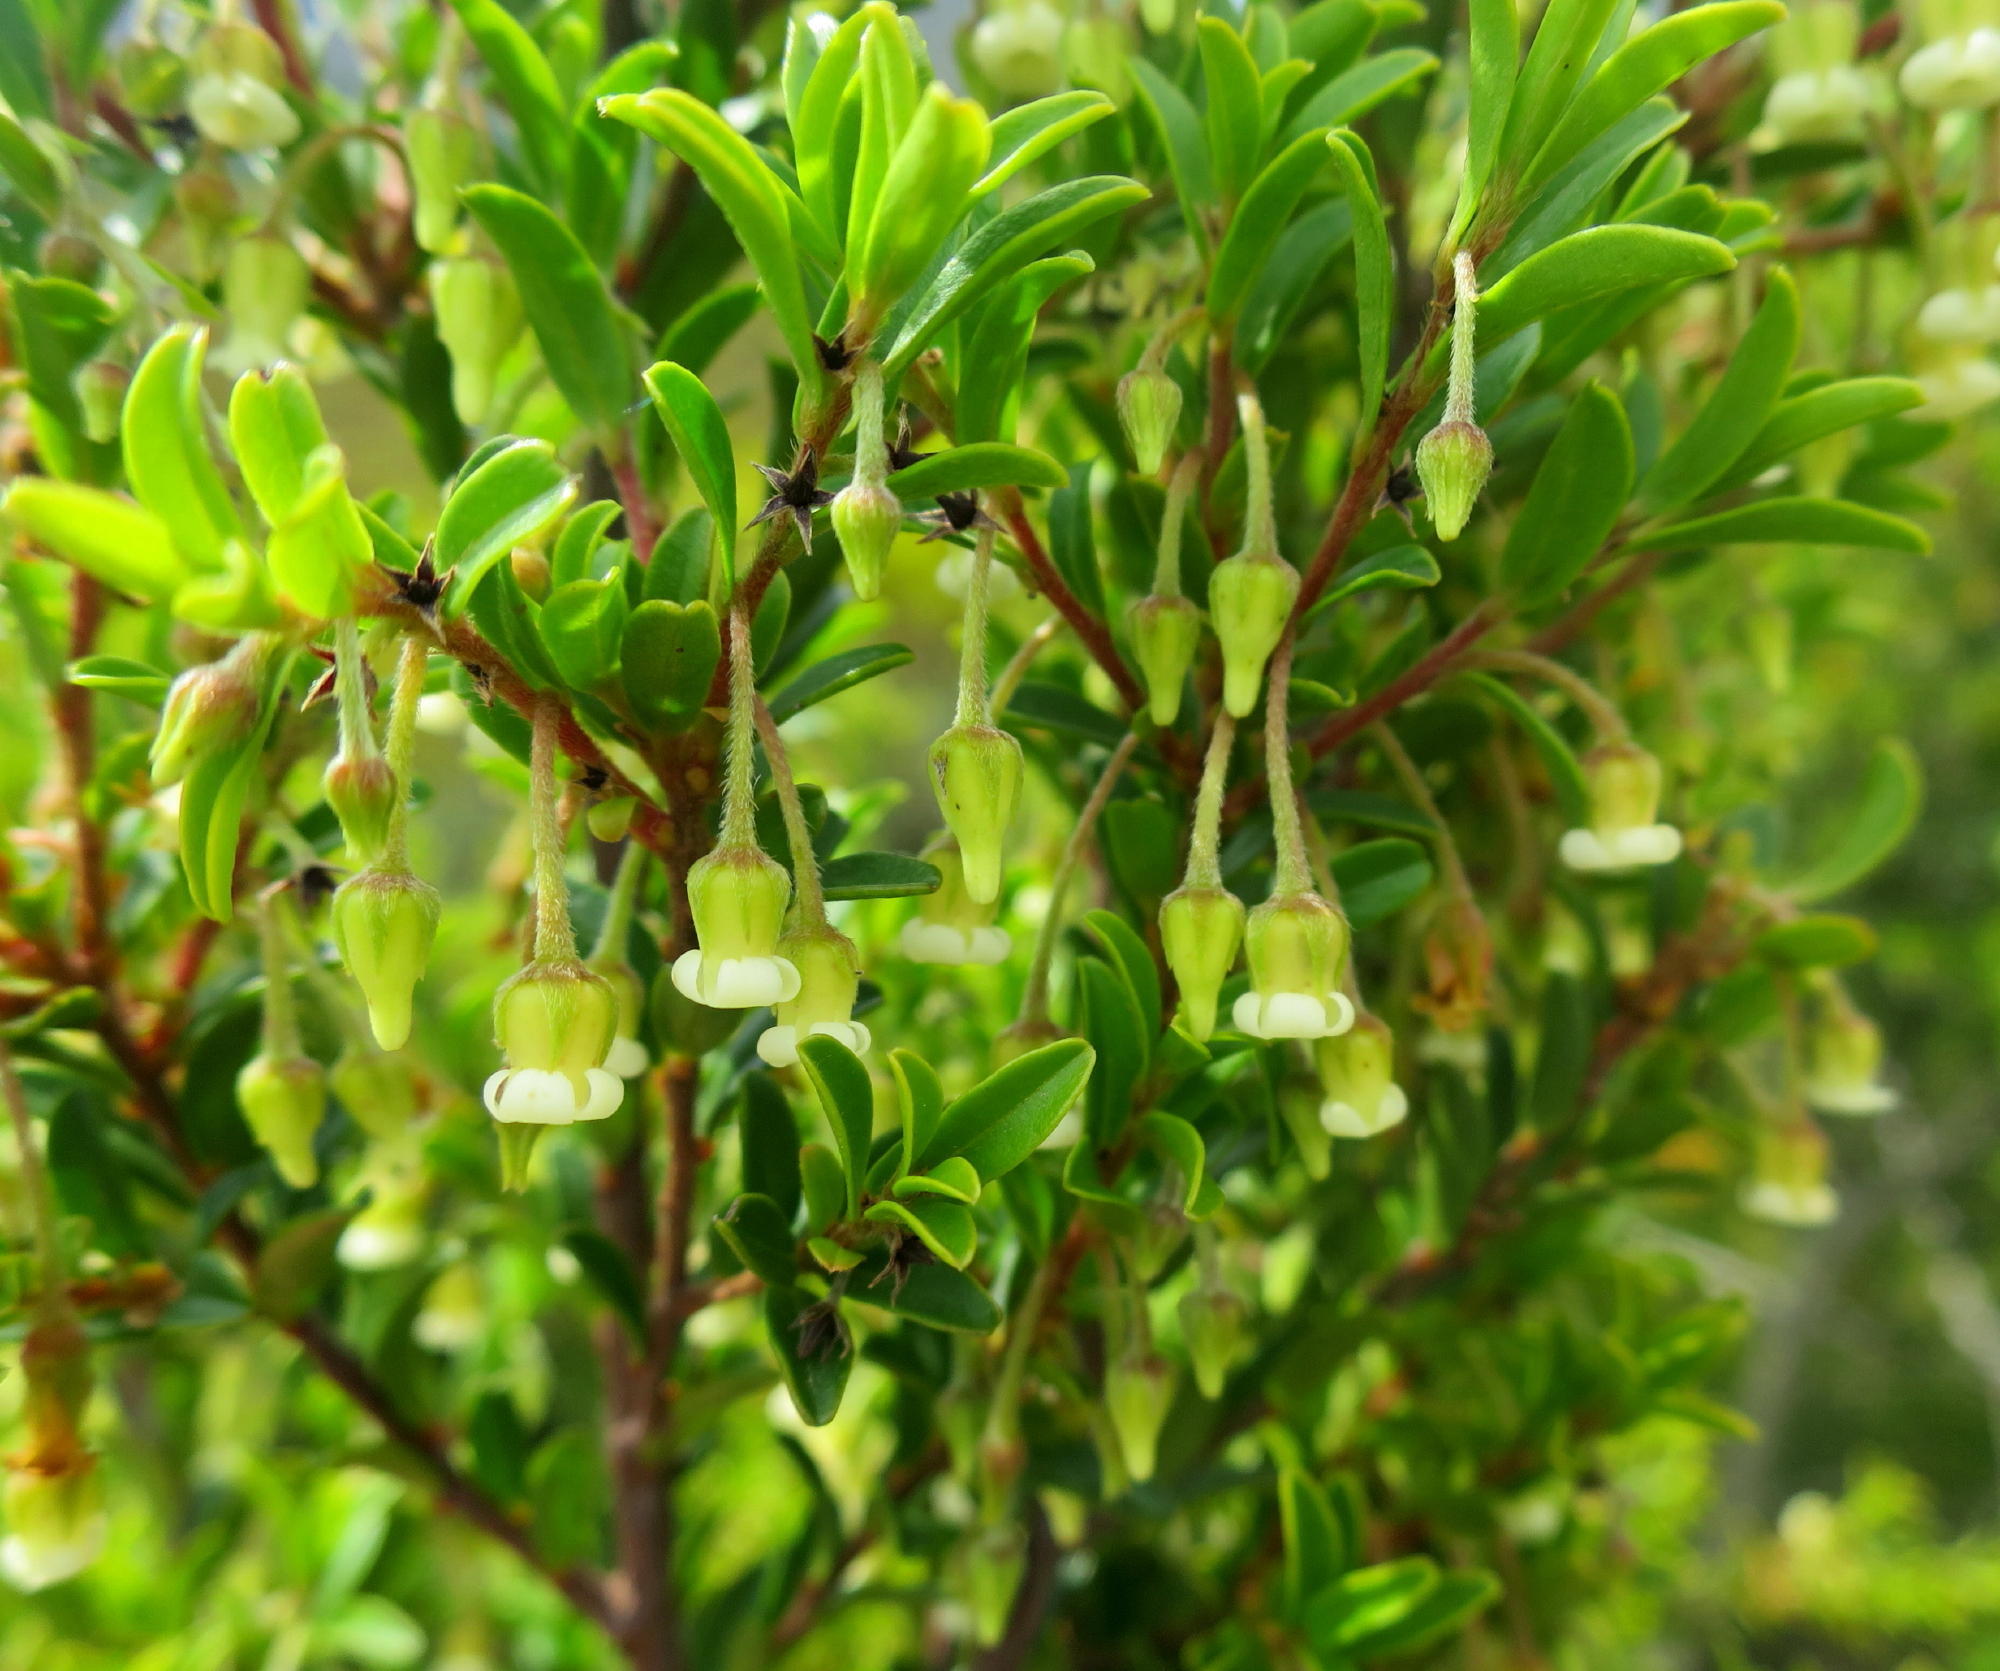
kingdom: Plantae
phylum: Tracheophyta
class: Magnoliopsida
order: Ericales
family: Ebenaceae
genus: Diospyros
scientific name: Diospyros glabra
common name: Fynbos star apple
